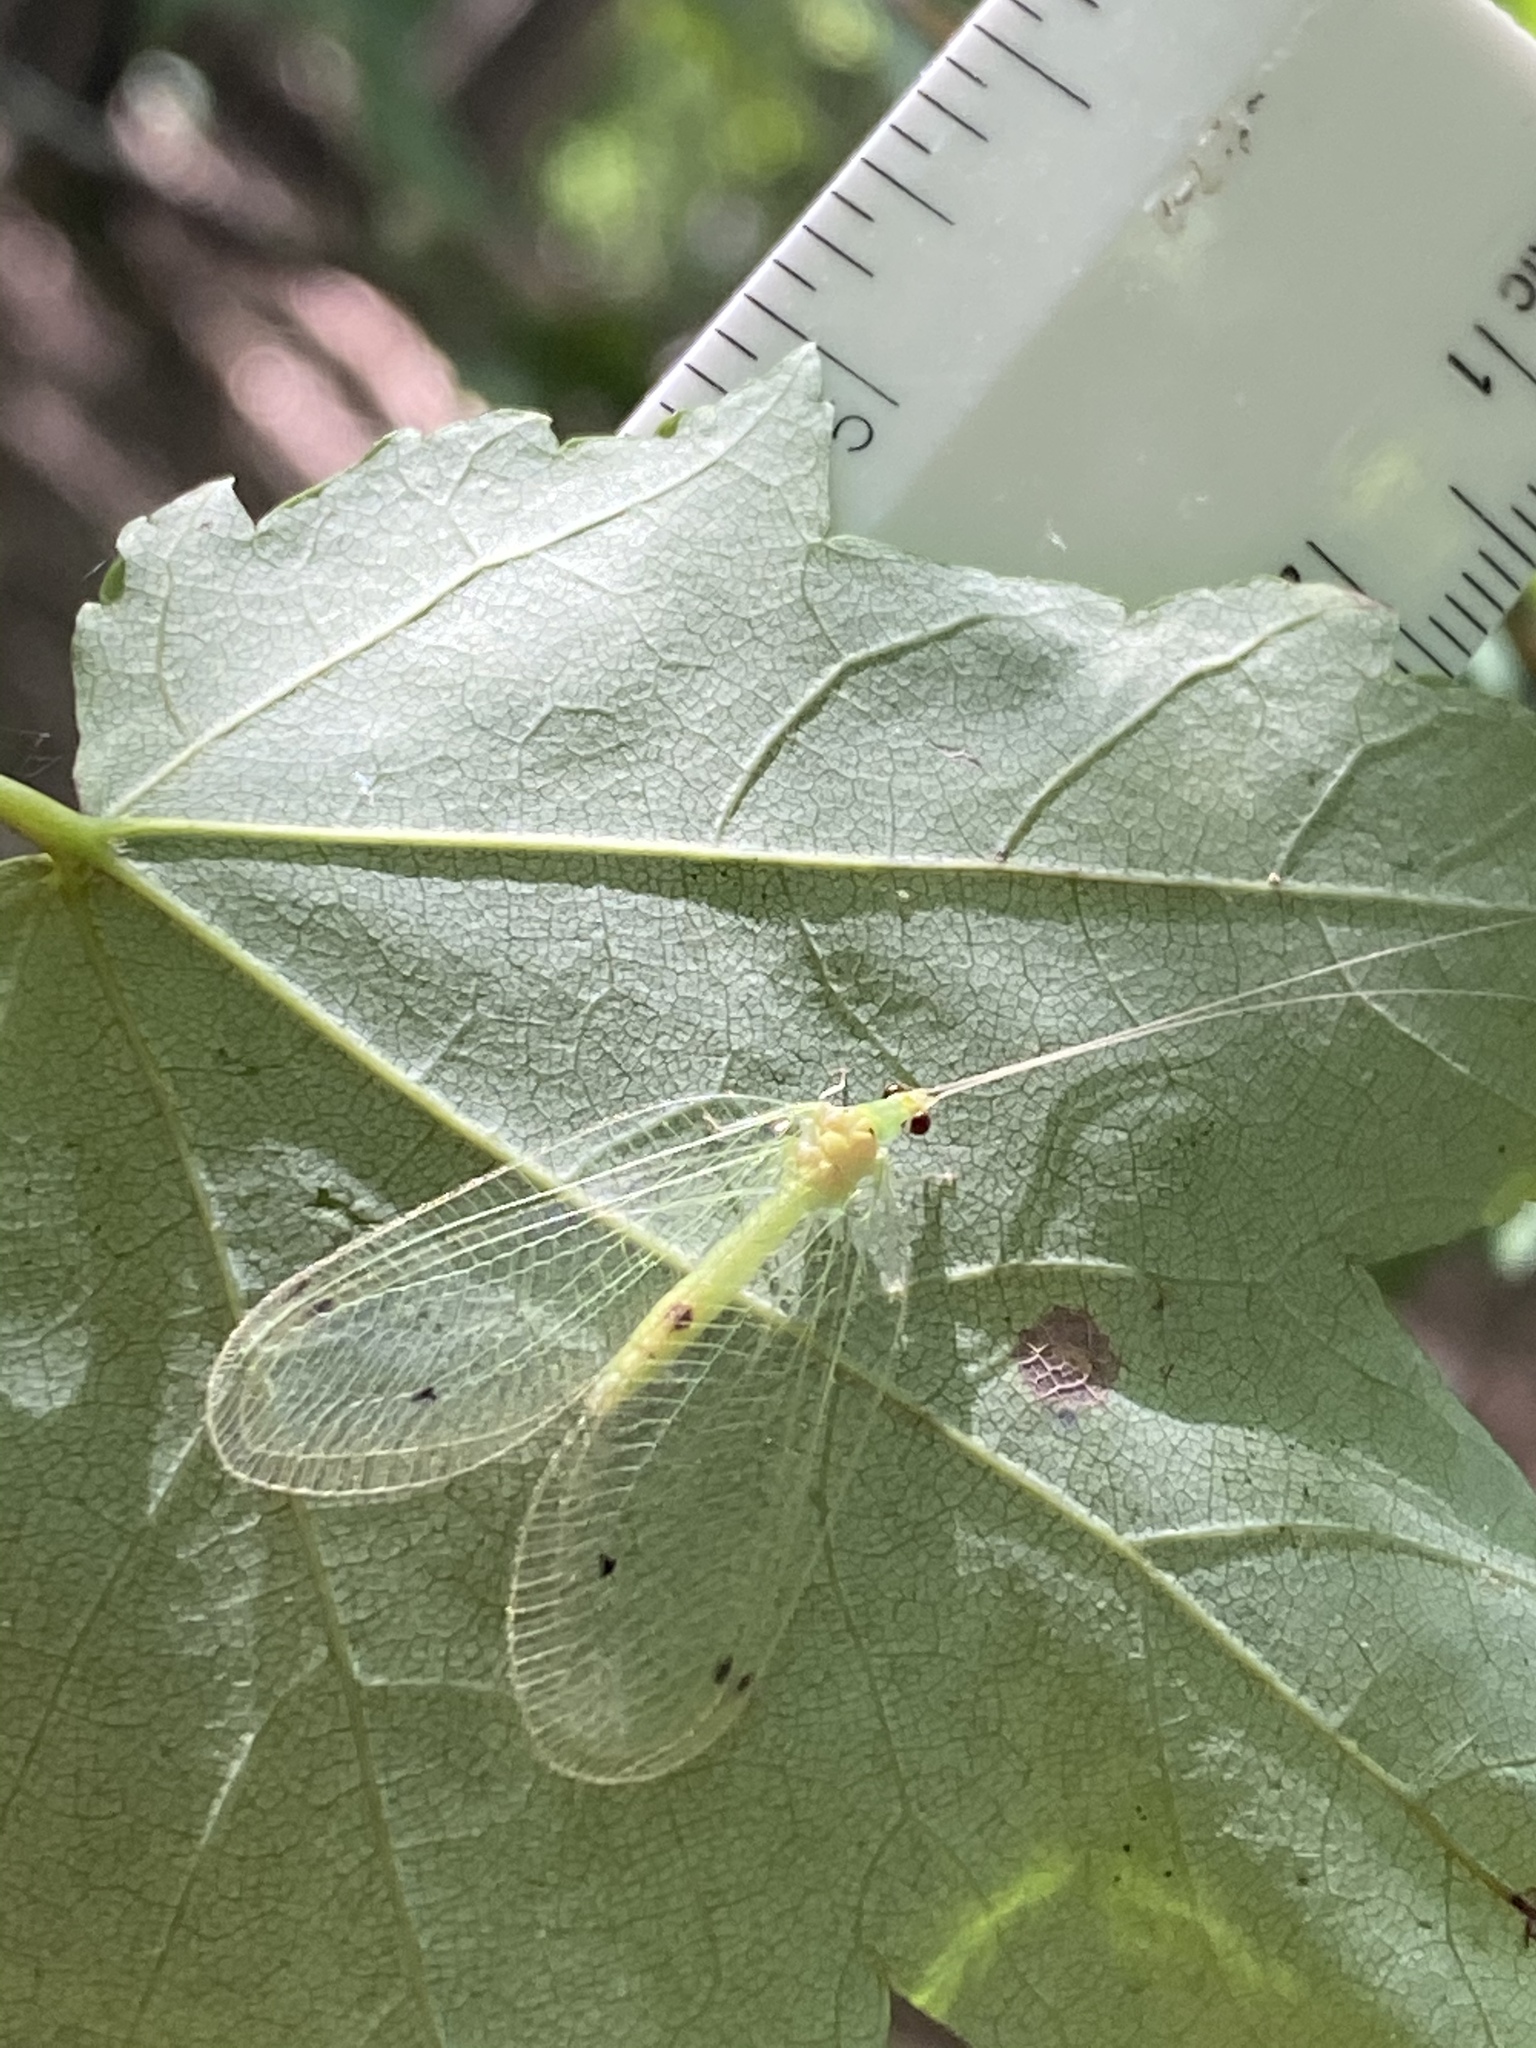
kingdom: Animalia
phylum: Arthropoda
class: Insecta
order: Neuroptera
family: Chrysopidae
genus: Leucochrysa
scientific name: Leucochrysa insularis
